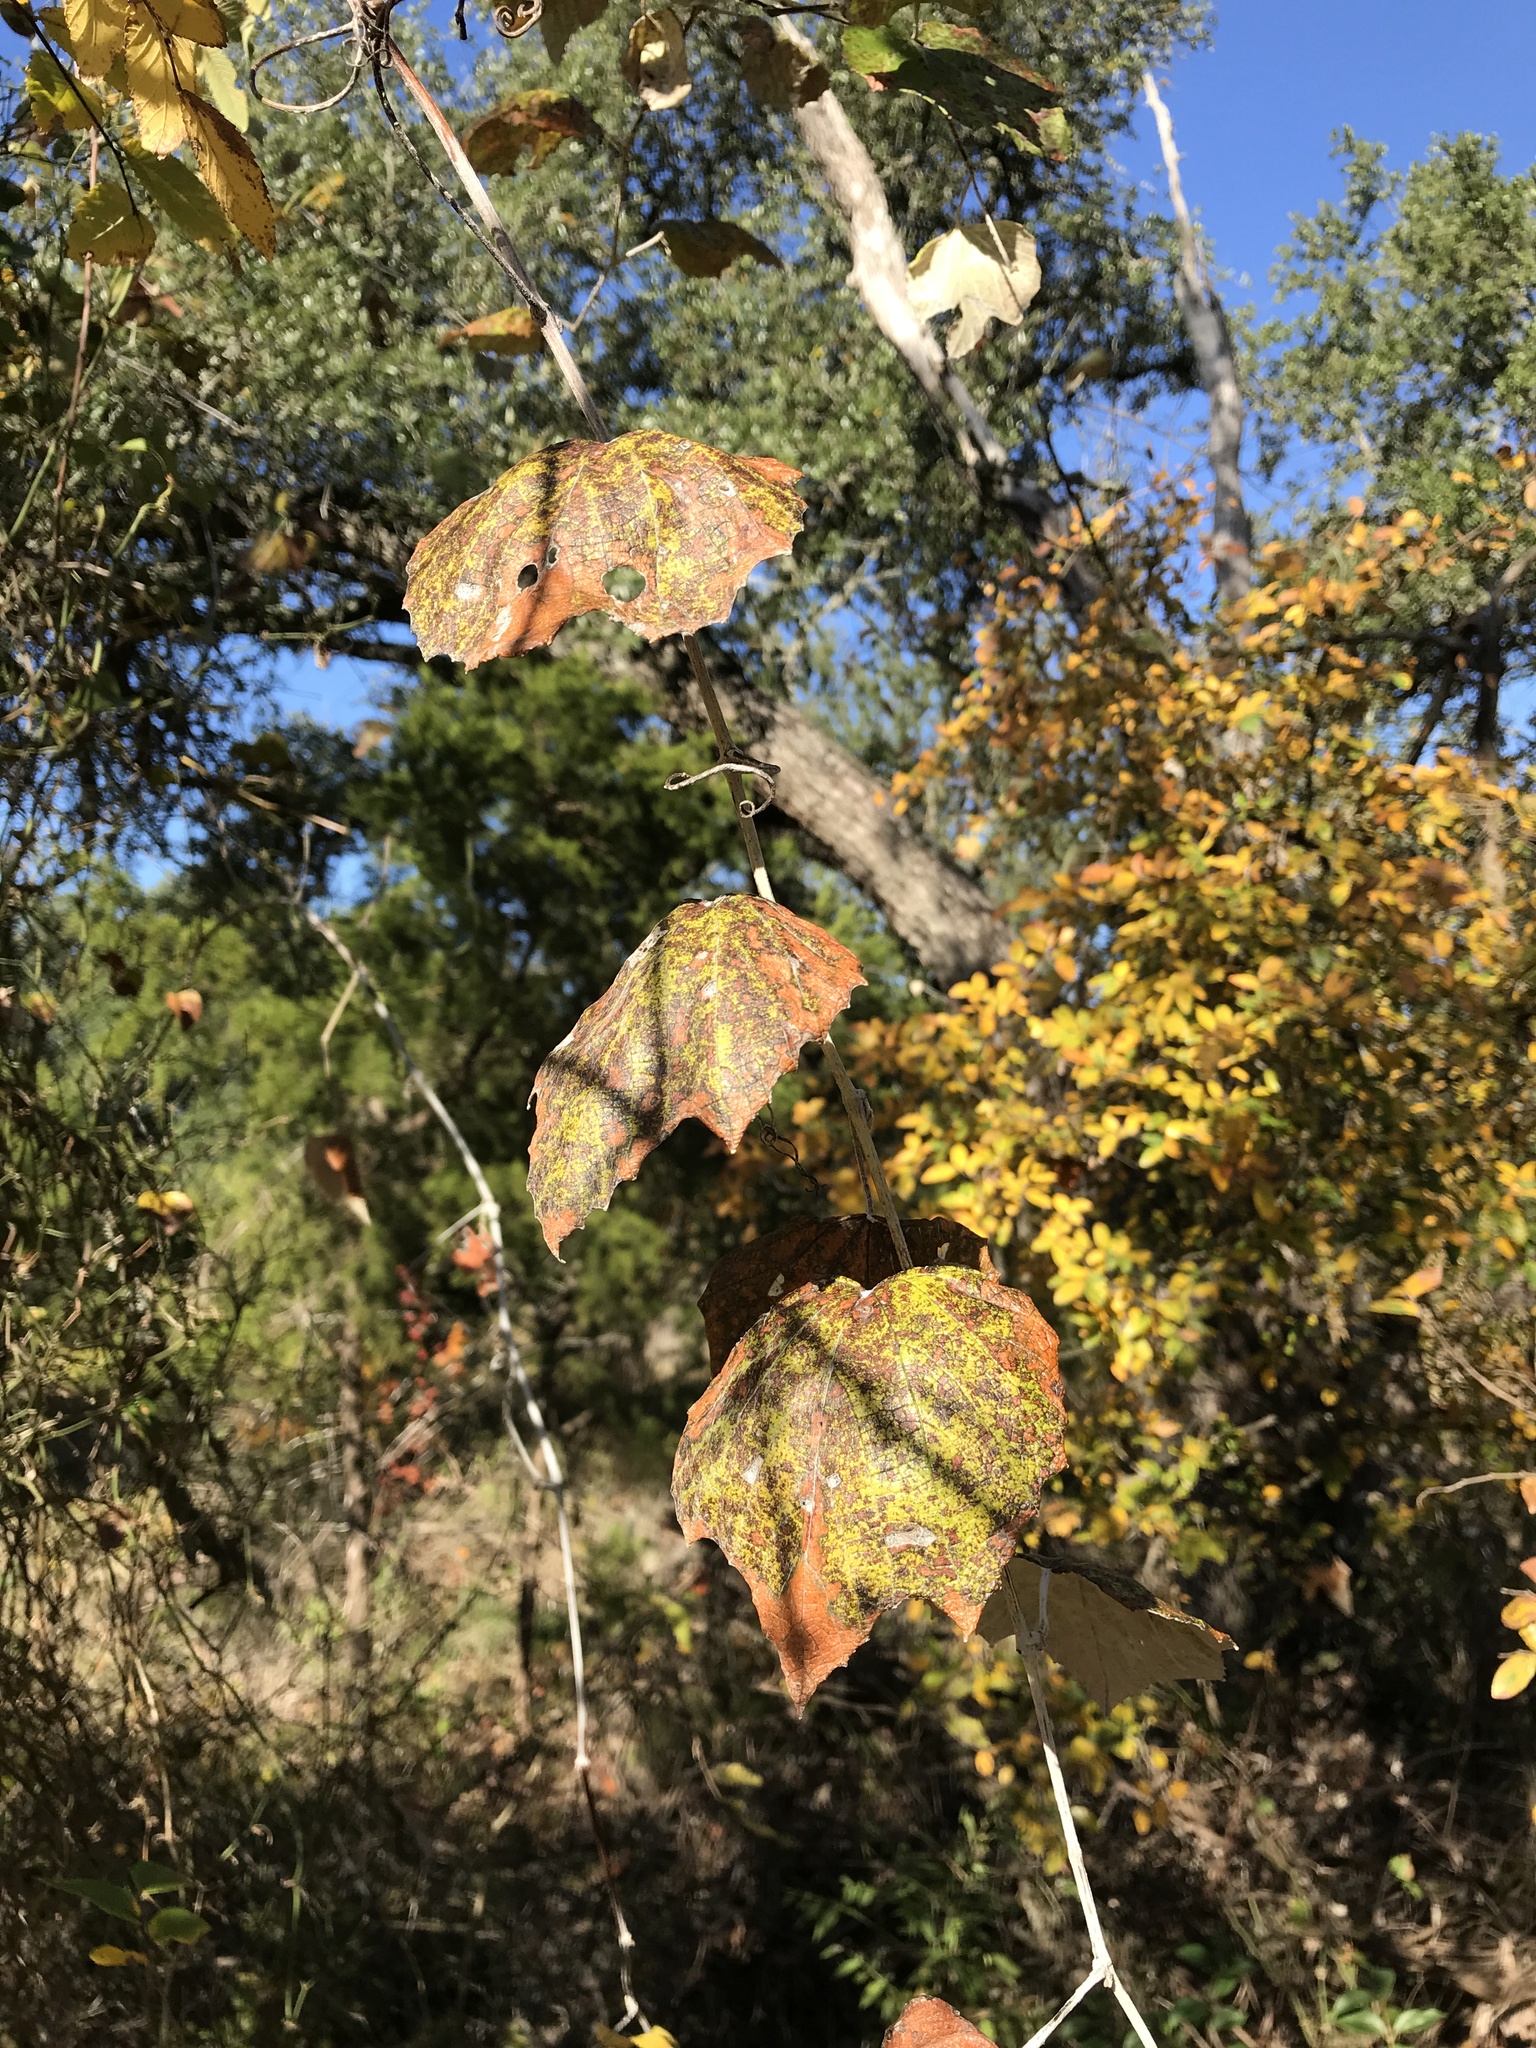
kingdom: Plantae
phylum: Tracheophyta
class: Magnoliopsida
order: Vitales
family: Vitaceae
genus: Vitis
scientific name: Vitis mustangensis
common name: Mustang grape
